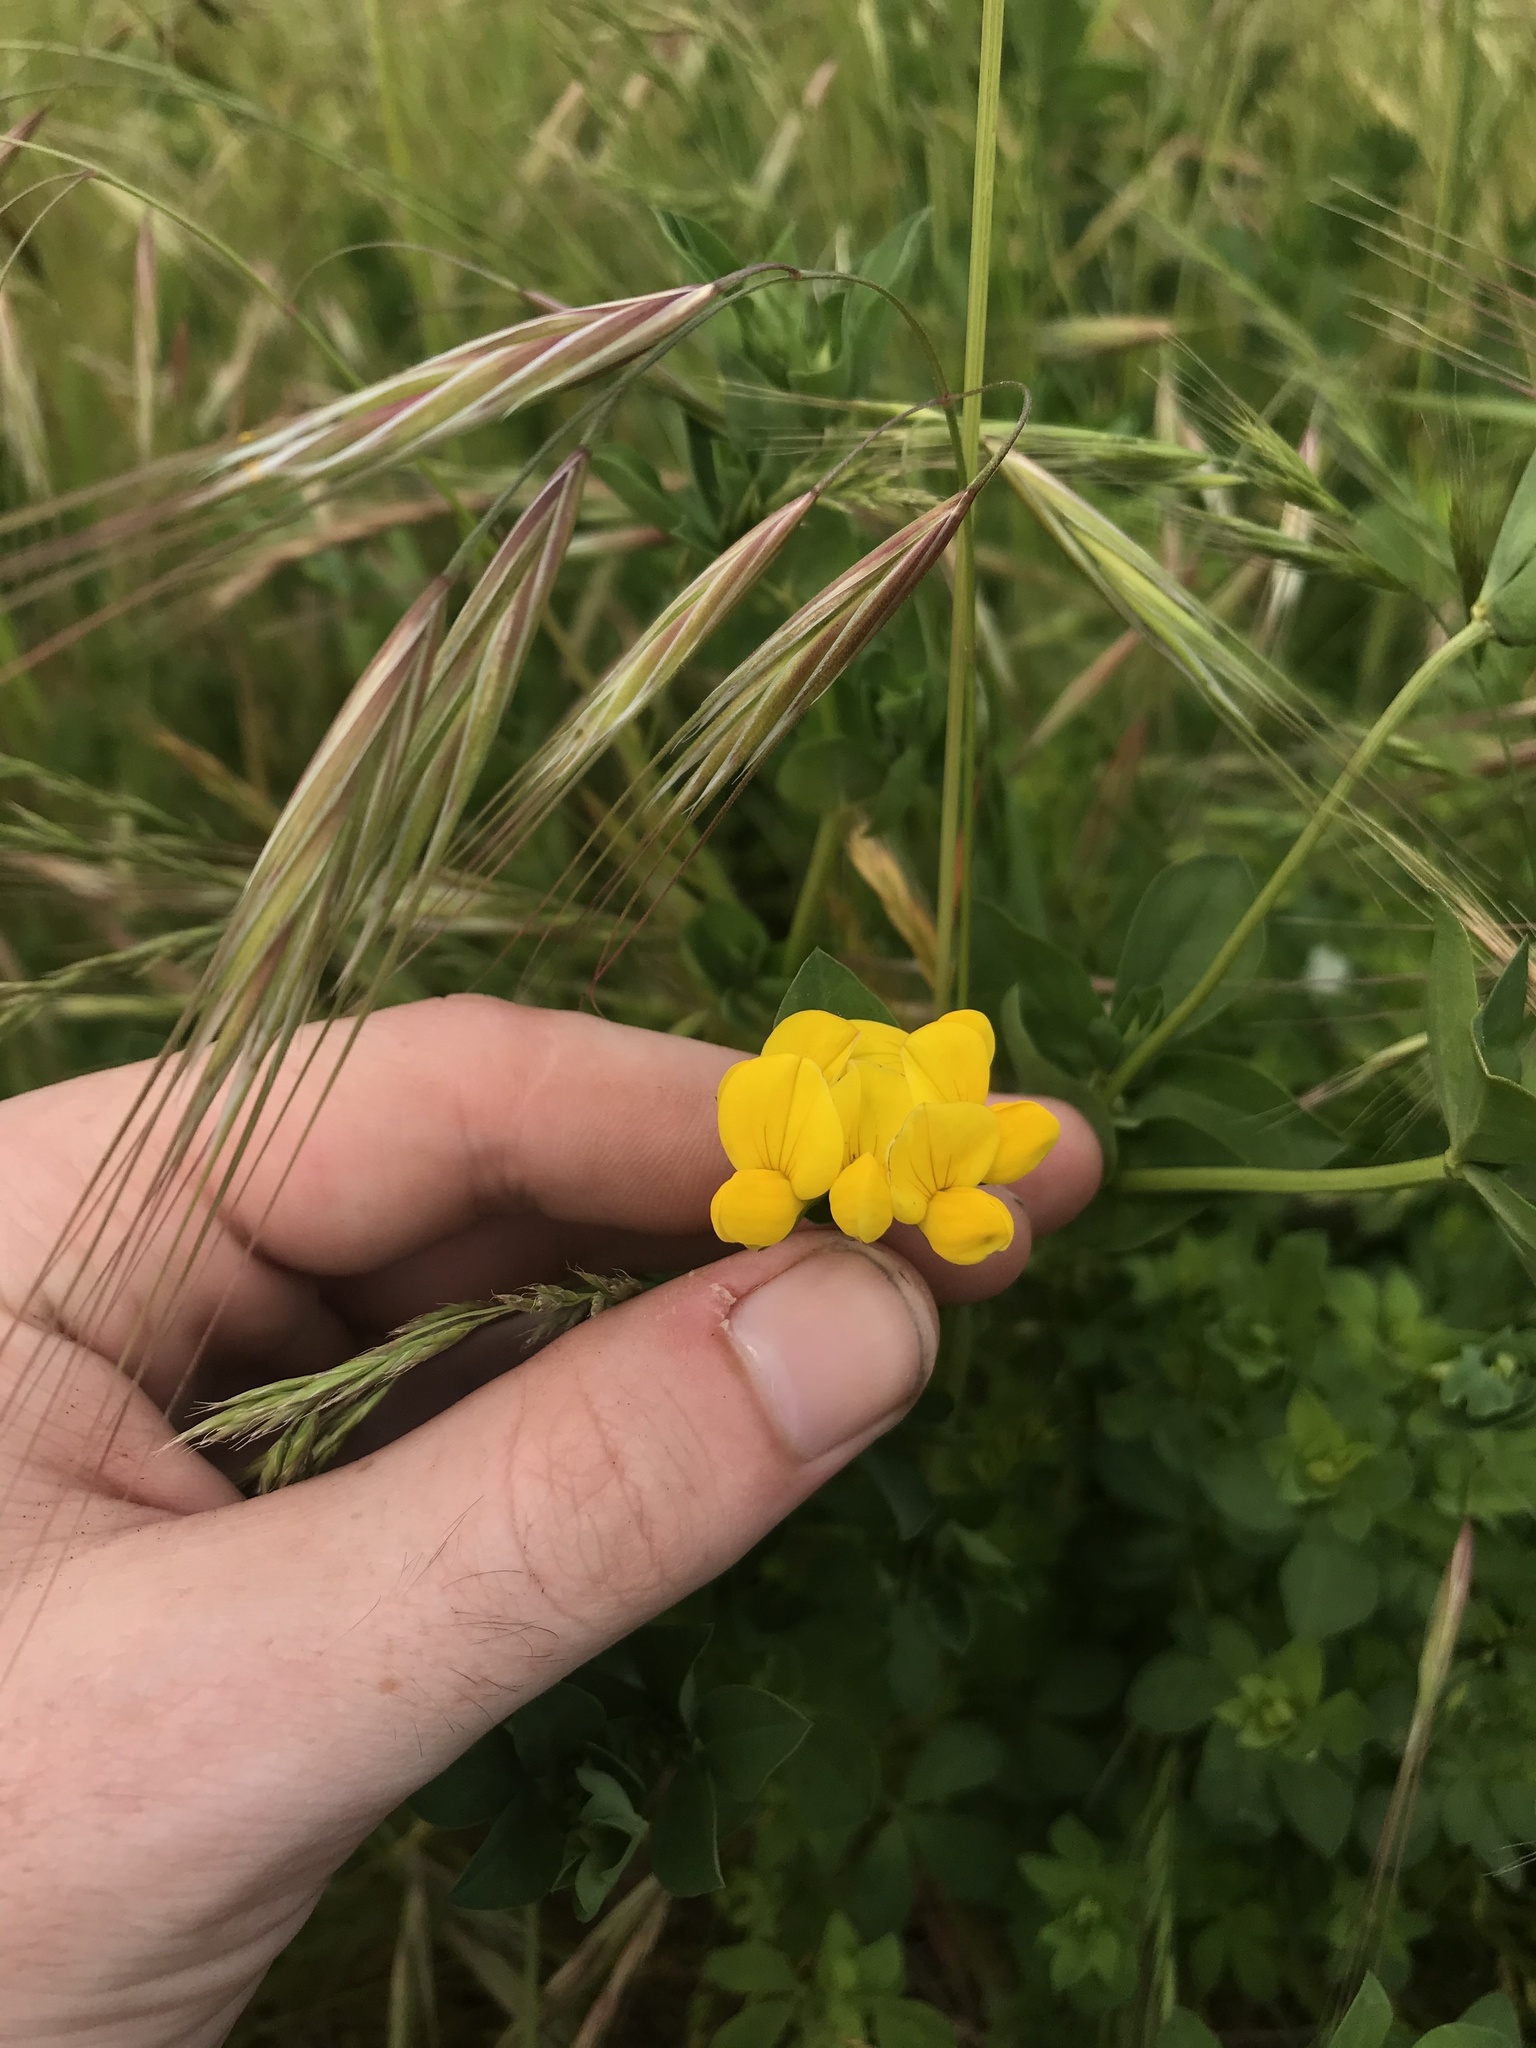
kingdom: Plantae
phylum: Tracheophyta
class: Magnoliopsida
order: Fabales
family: Fabaceae
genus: Lotus
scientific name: Lotus corniculatus
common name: Common bird's-foot-trefoil
